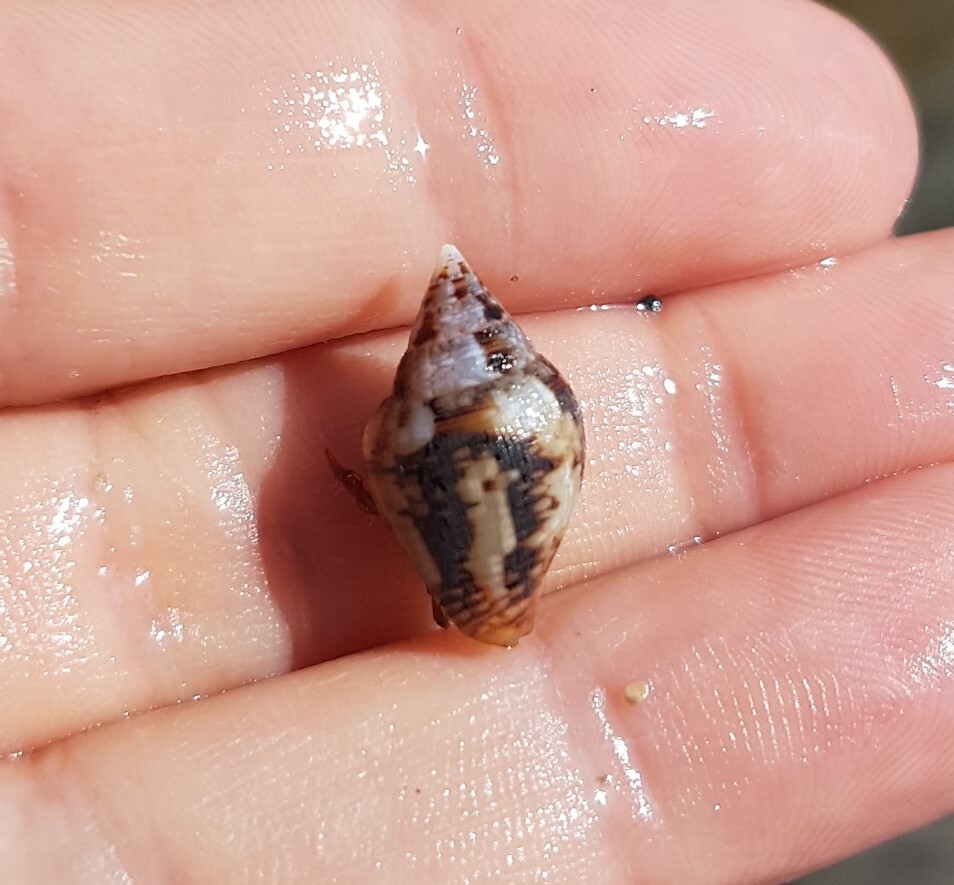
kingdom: Animalia
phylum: Mollusca
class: Gastropoda
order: Neogastropoda
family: Columbellidae
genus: Columbella
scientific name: Columbella rustica
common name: Rustic dove shell
